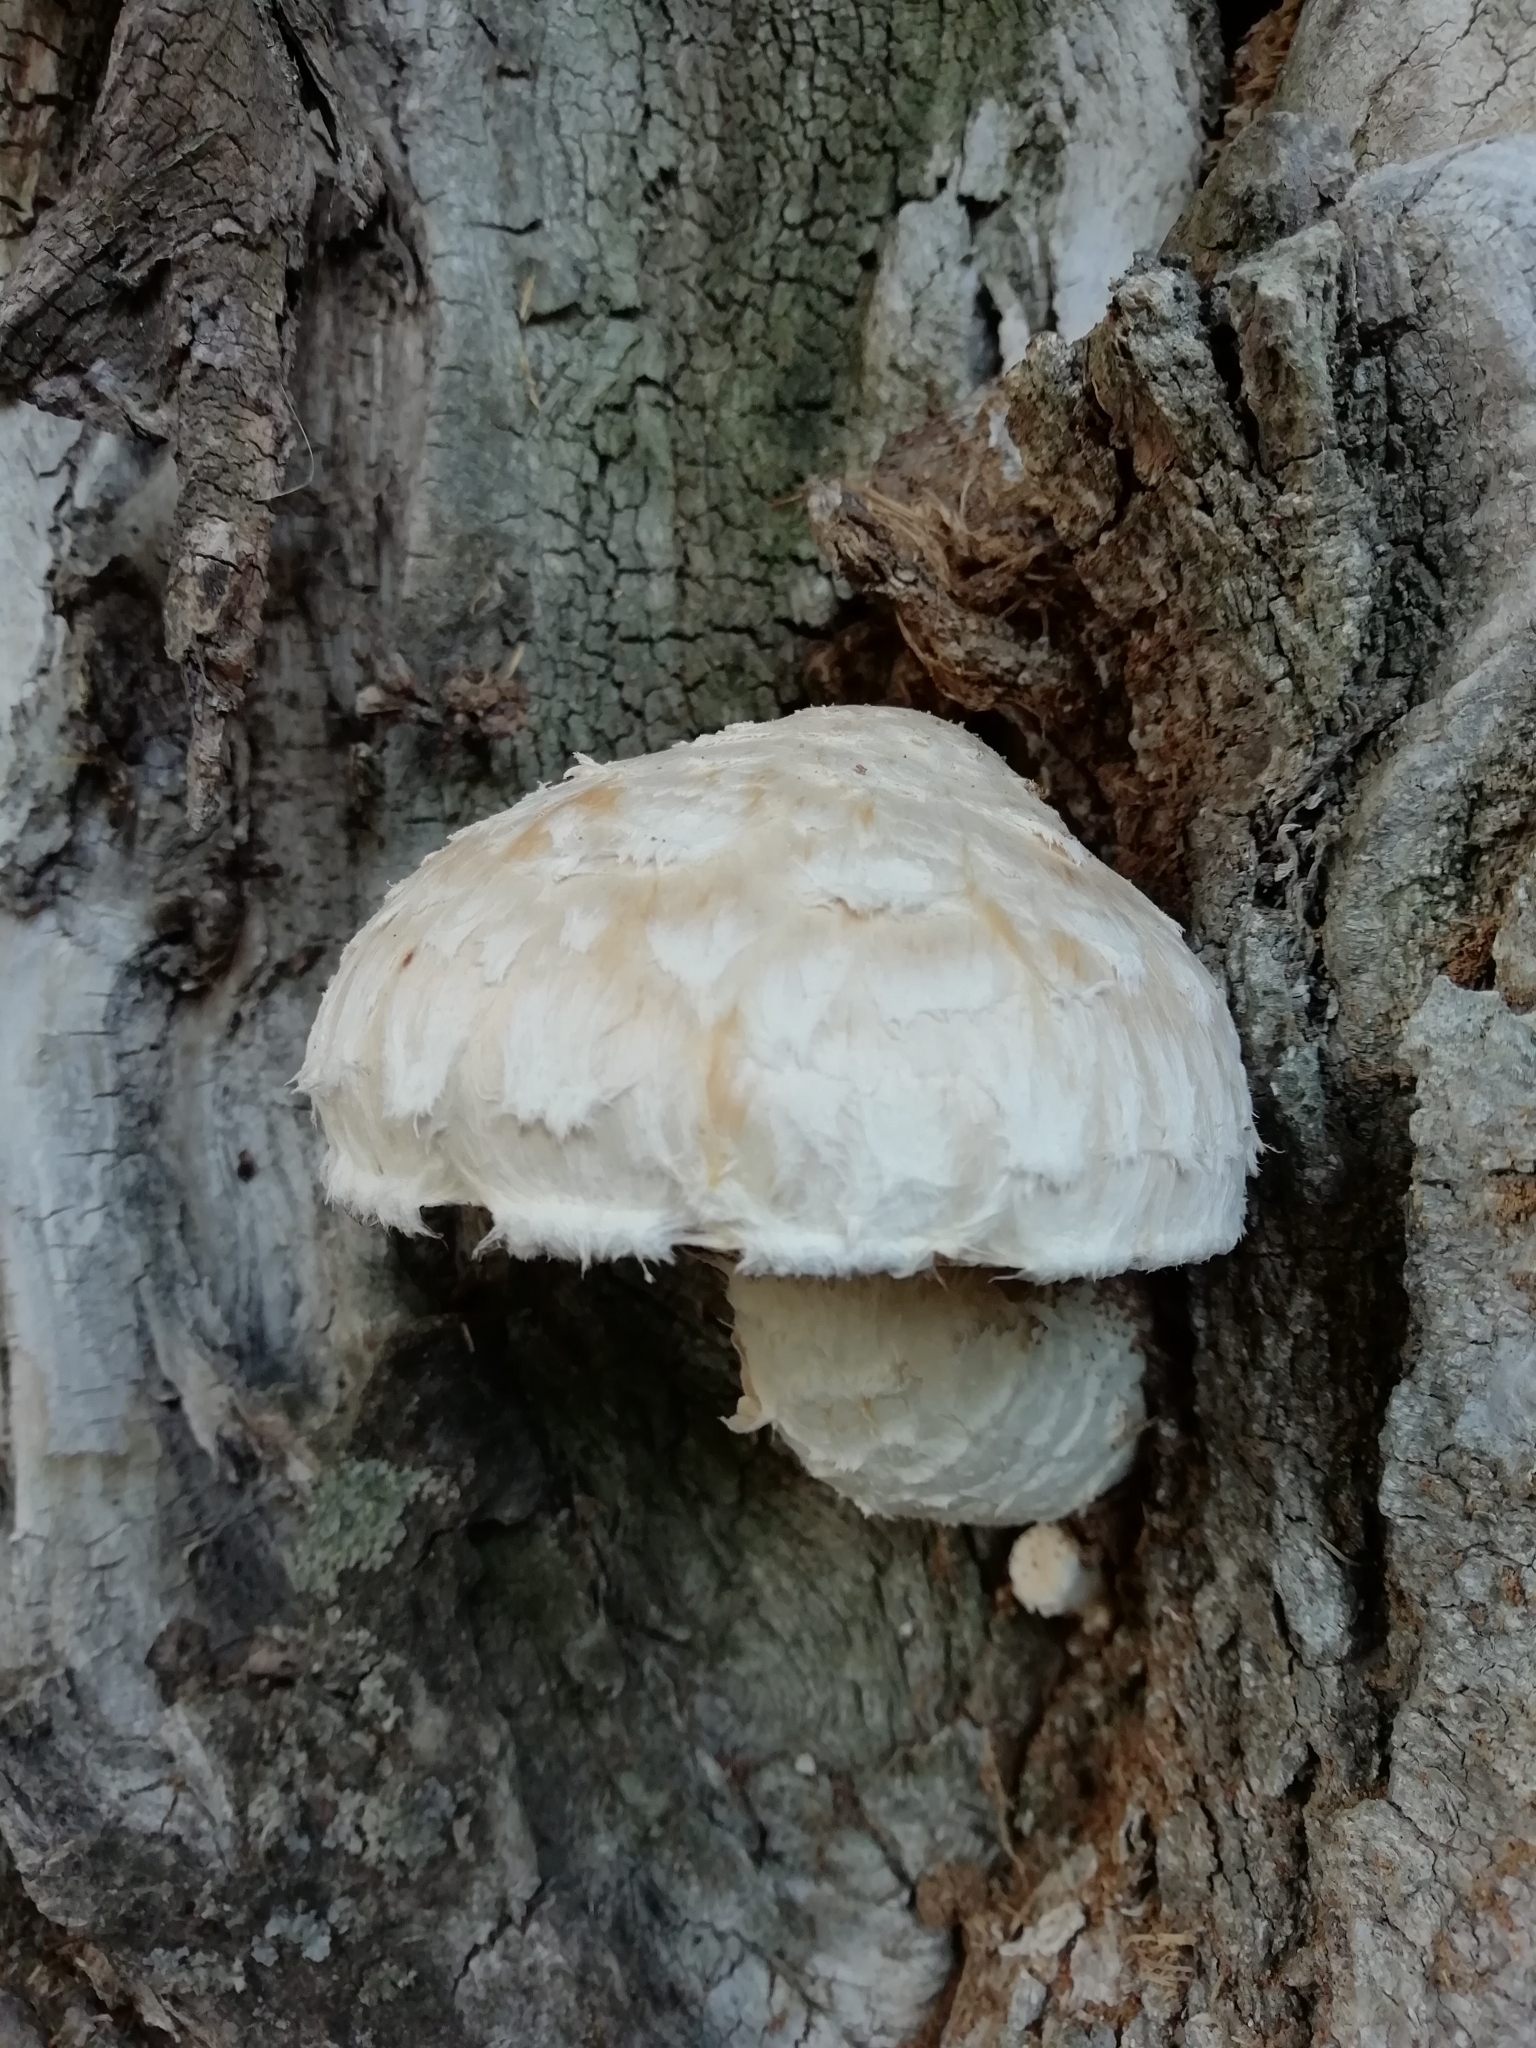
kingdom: Fungi
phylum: Basidiomycota
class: Agaricomycetes
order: Agaricales
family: Strophariaceae
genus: Pholiota
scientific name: Pholiota populnea
